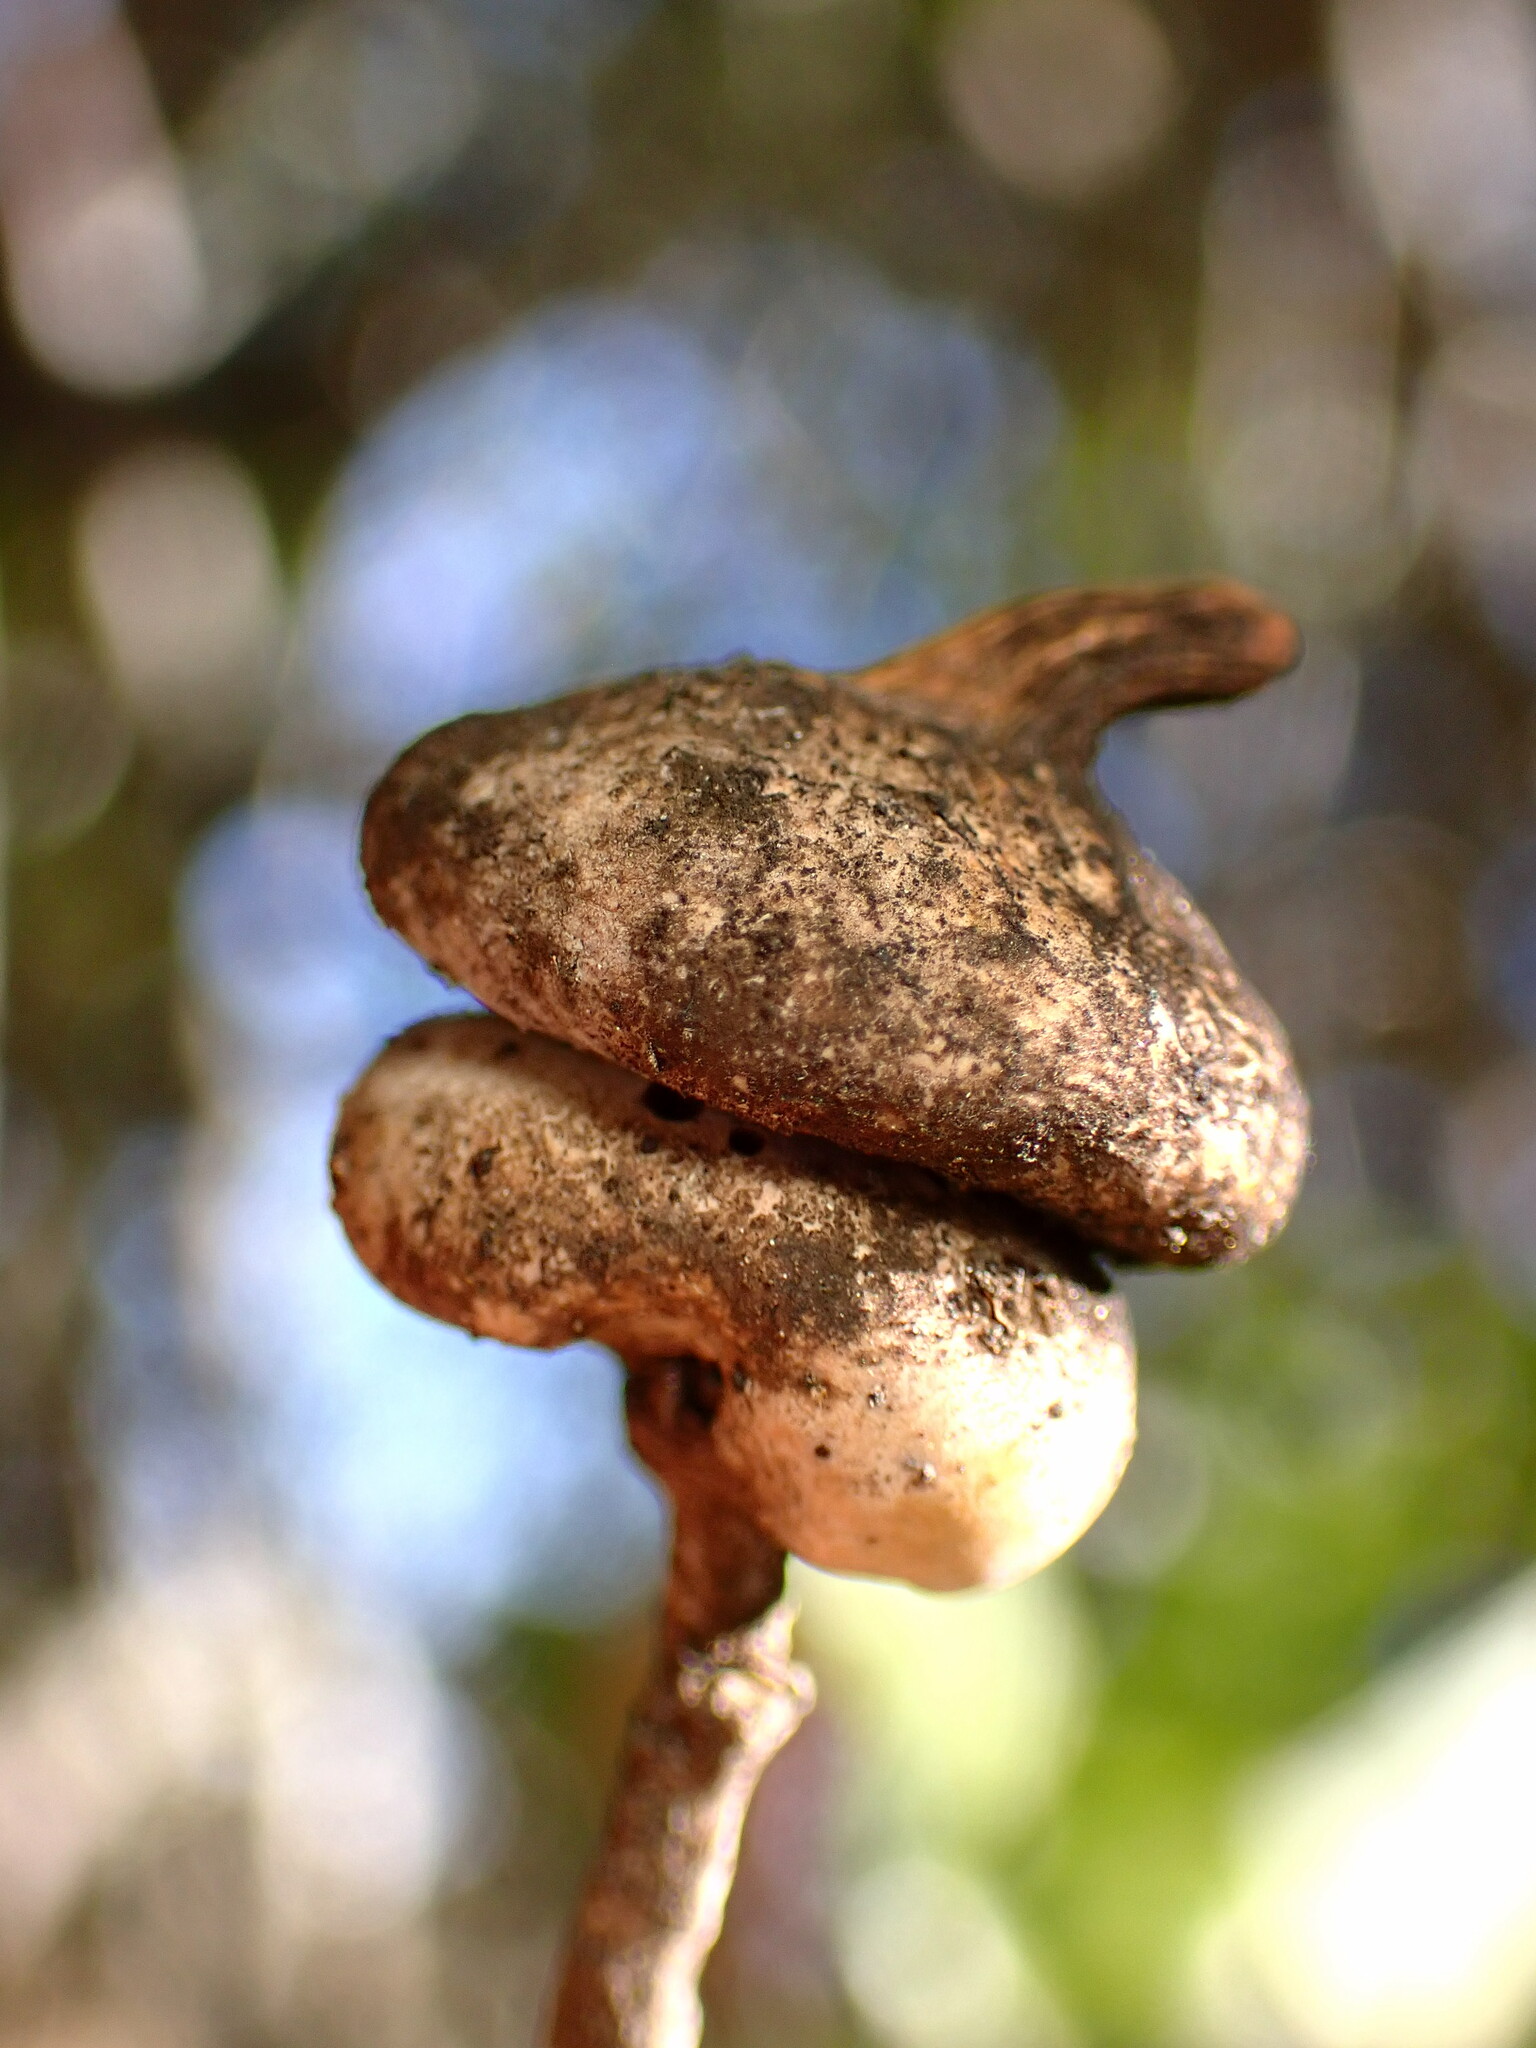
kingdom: Animalia
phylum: Arthropoda
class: Insecta
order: Hymenoptera
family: Cynipidae
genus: Heteroecus
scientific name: Heteroecus
